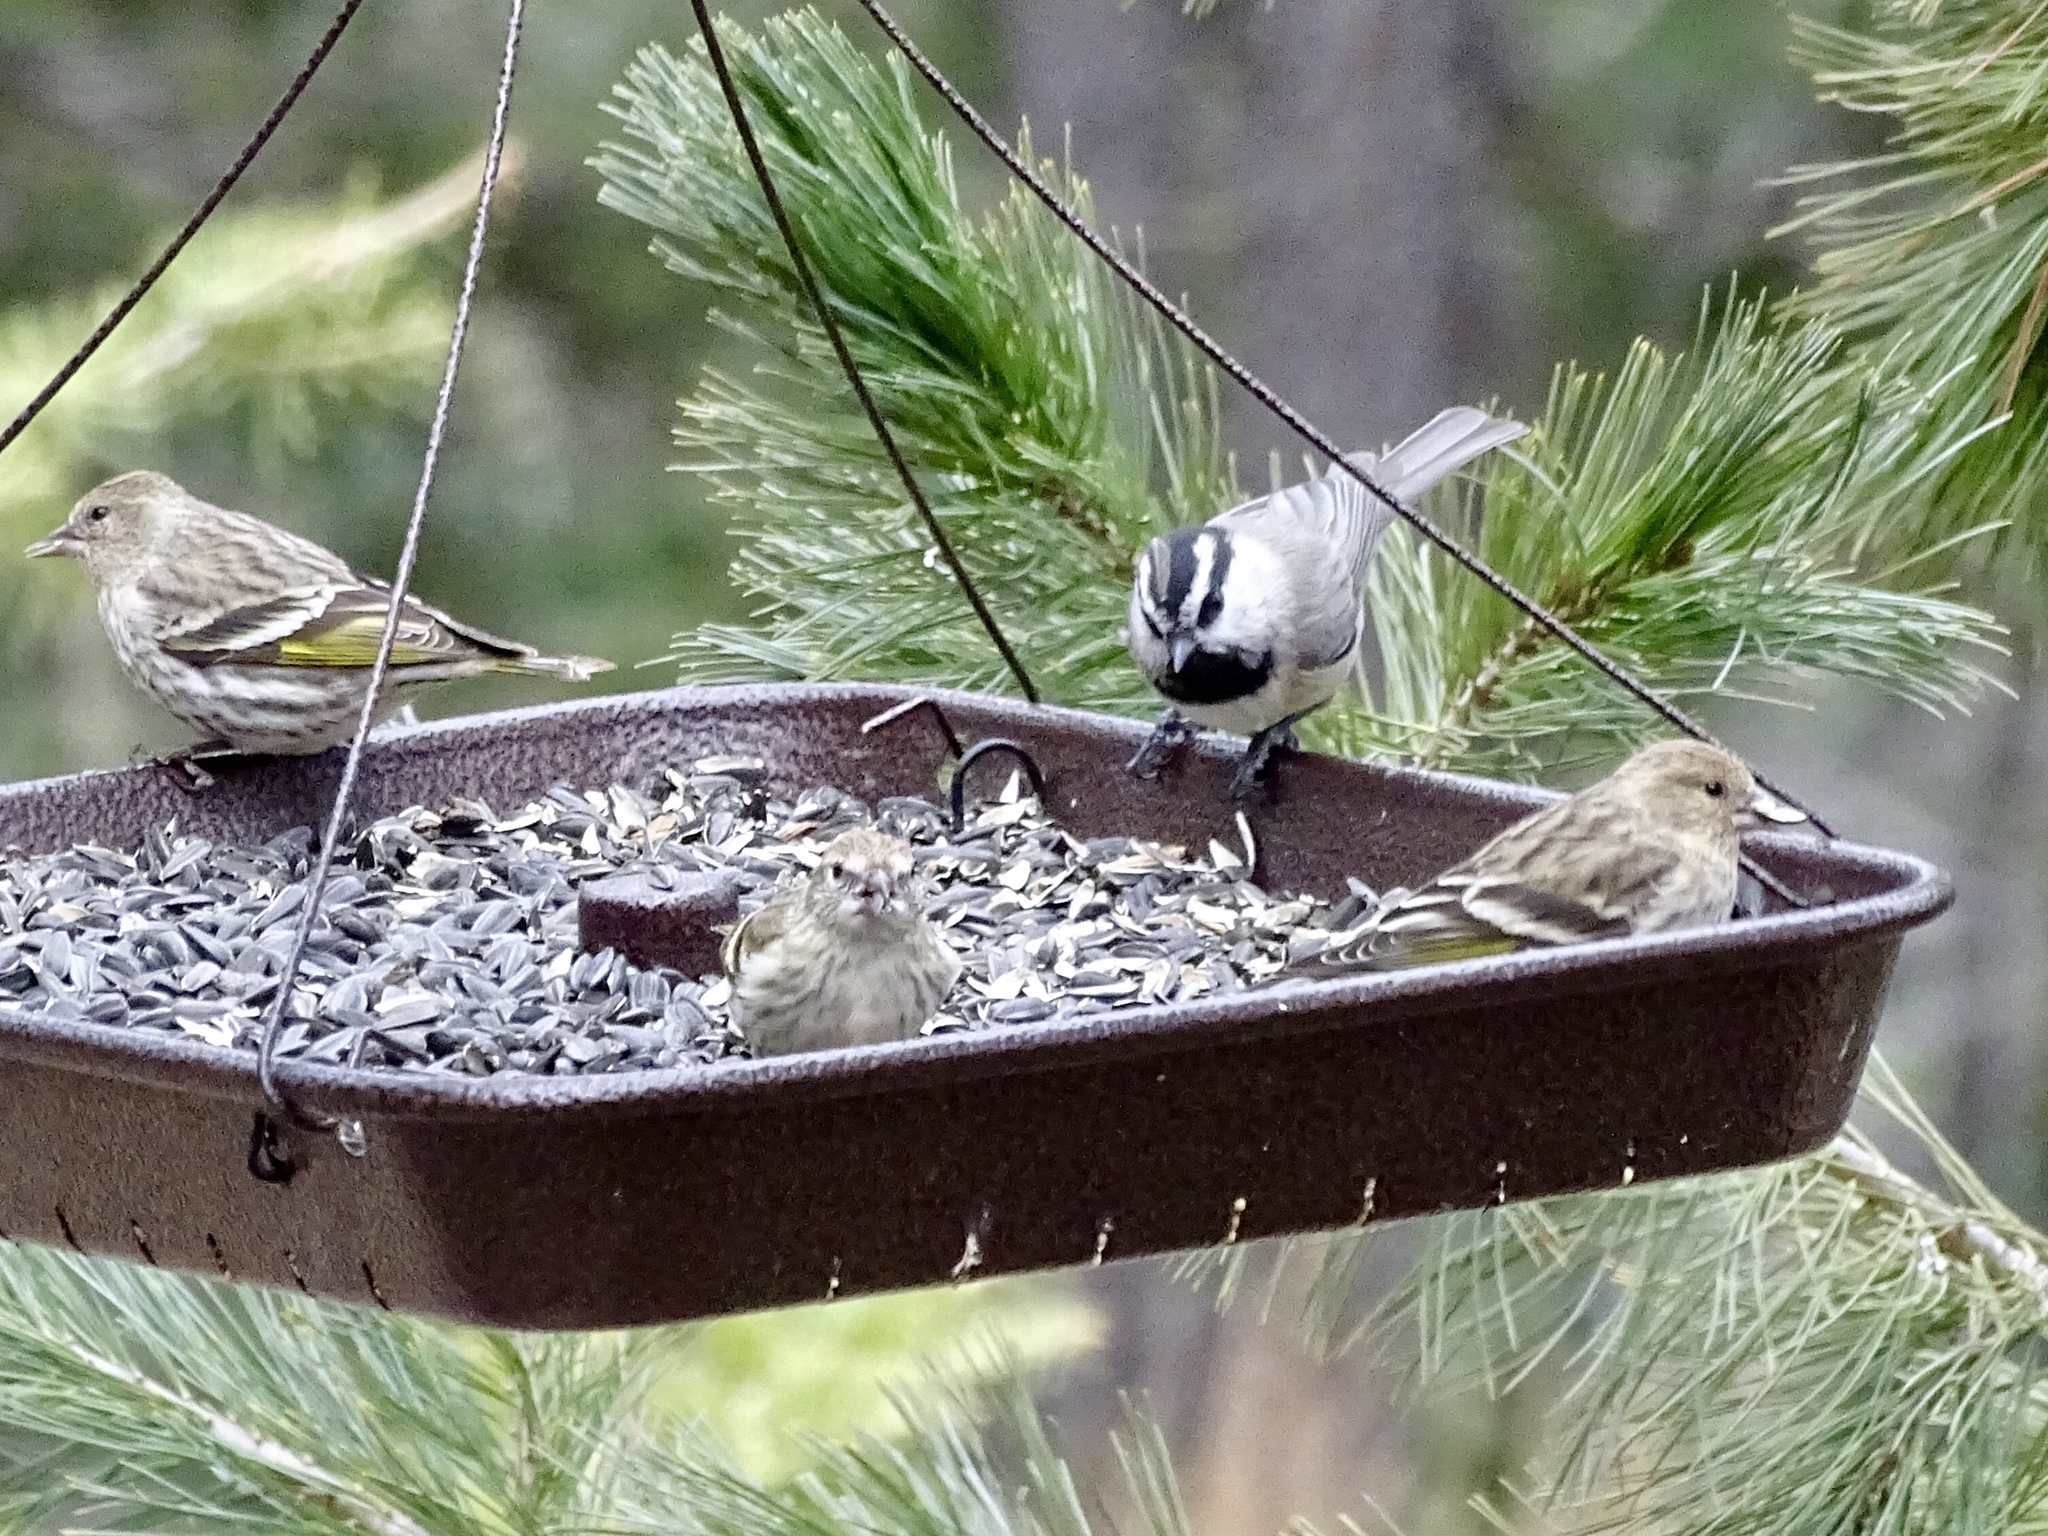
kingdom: Animalia
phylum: Chordata
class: Aves
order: Passeriformes
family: Fringillidae
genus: Spinus
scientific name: Spinus pinus
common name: Pine siskin
